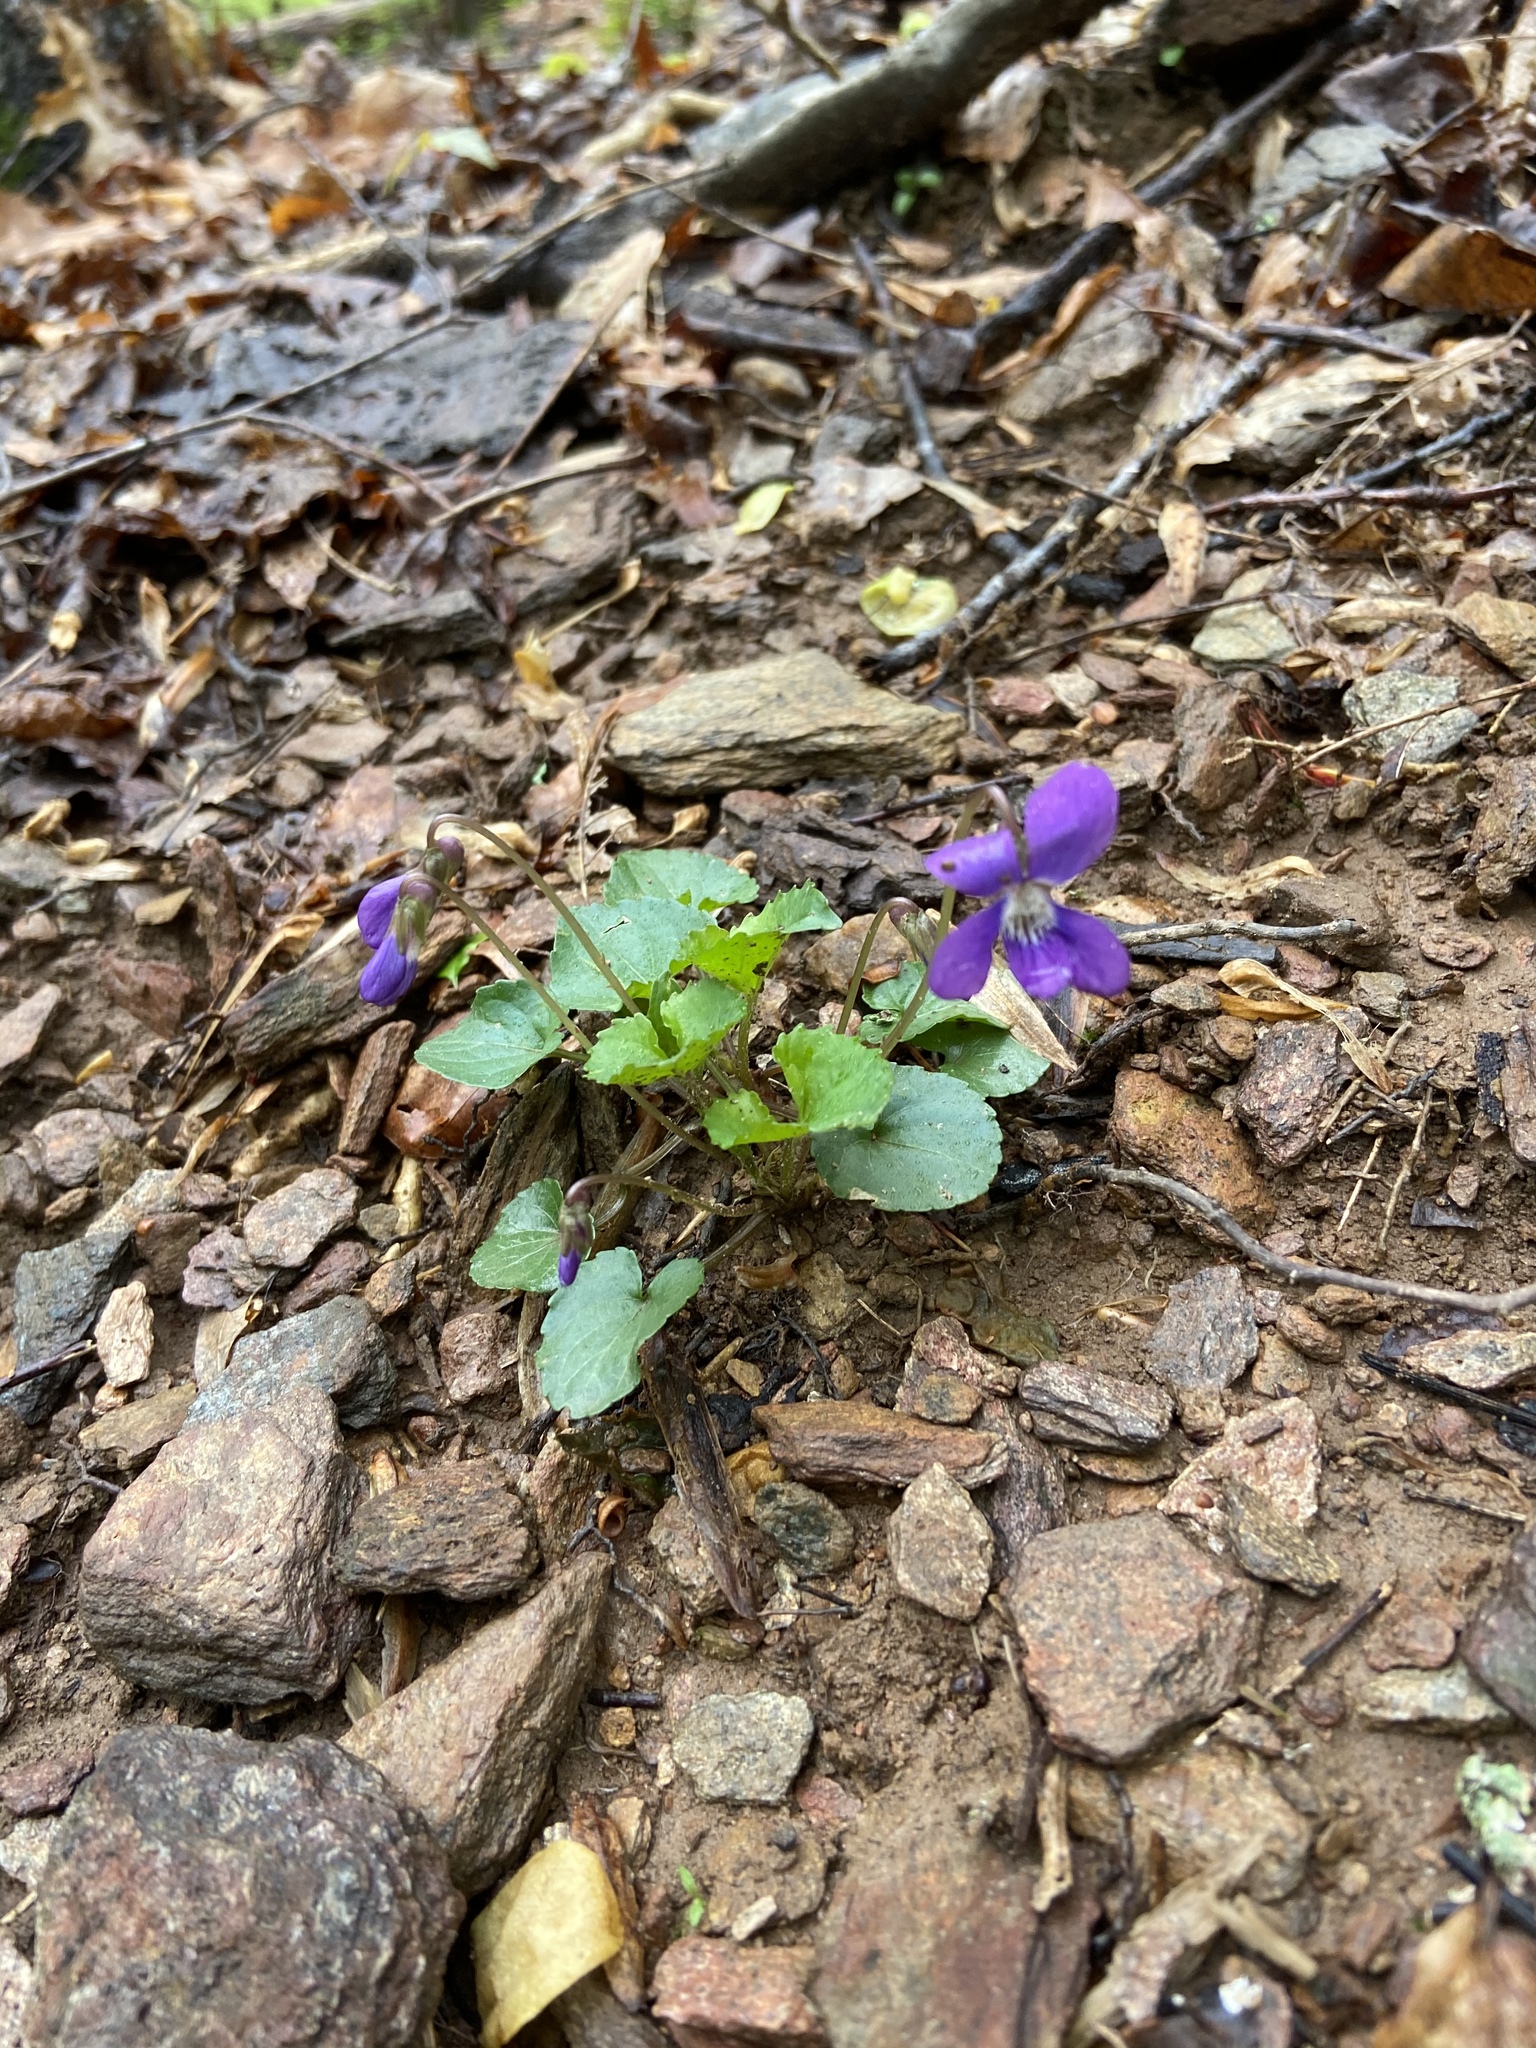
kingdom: Plantae
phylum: Tracheophyta
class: Magnoliopsida
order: Malpighiales
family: Violaceae
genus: Viola
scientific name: Viola sororia
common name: Dooryard violet
